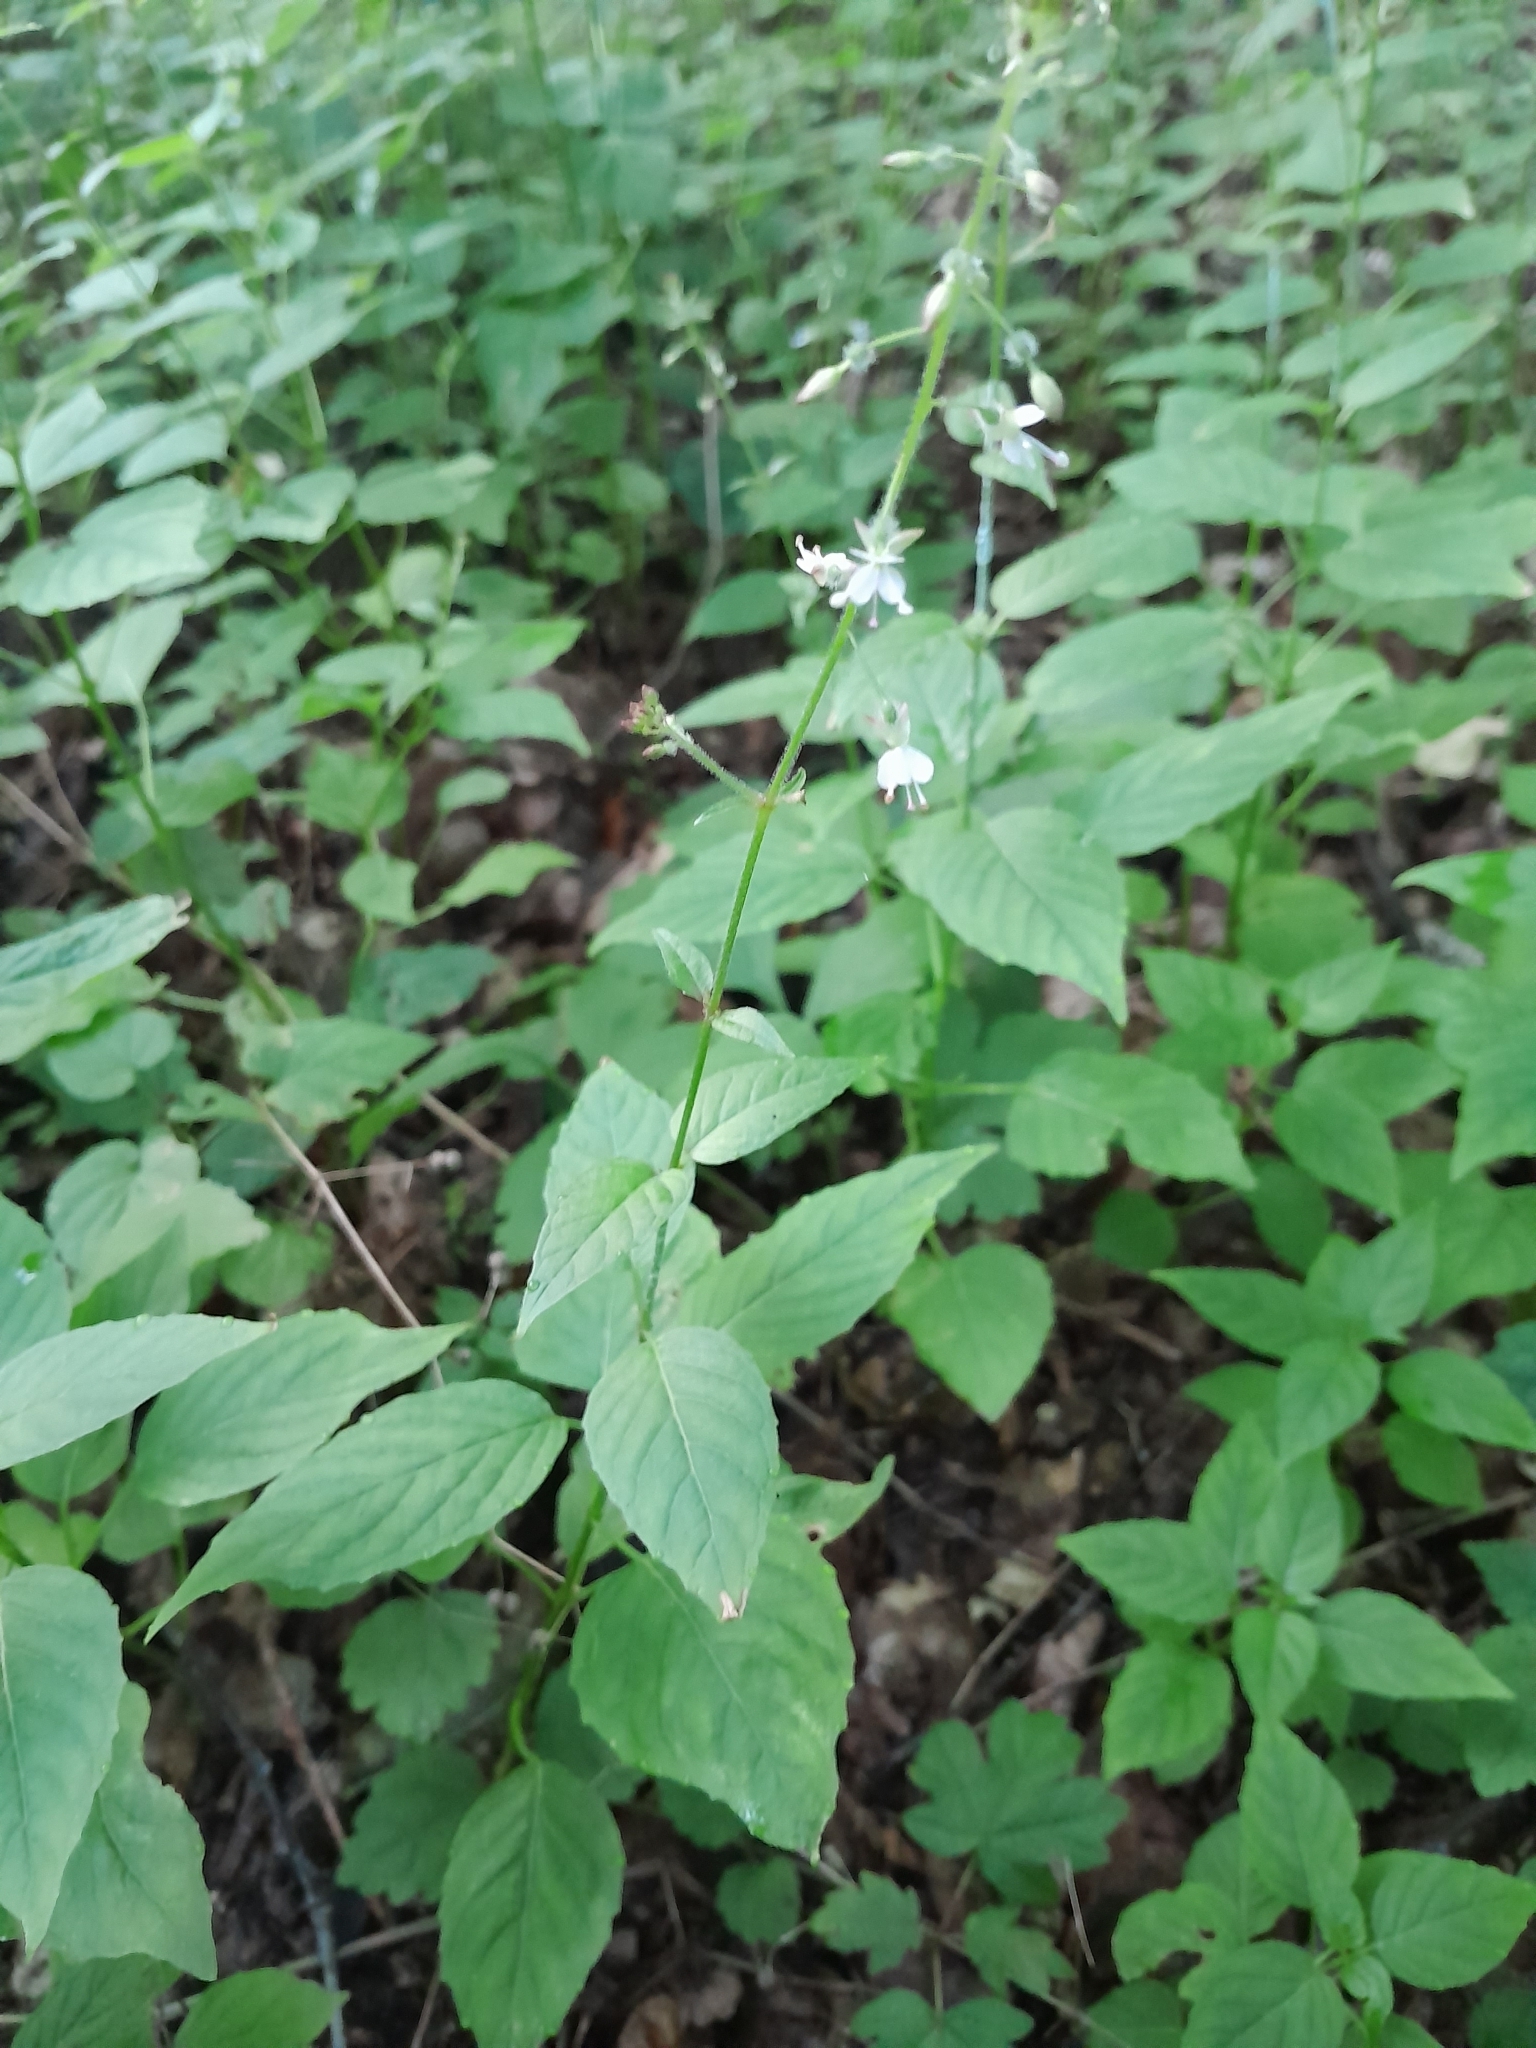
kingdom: Plantae
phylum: Tracheophyta
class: Magnoliopsida
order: Myrtales
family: Onagraceae
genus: Circaea
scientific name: Circaea lutetiana
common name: Enchanter's-nightshade
